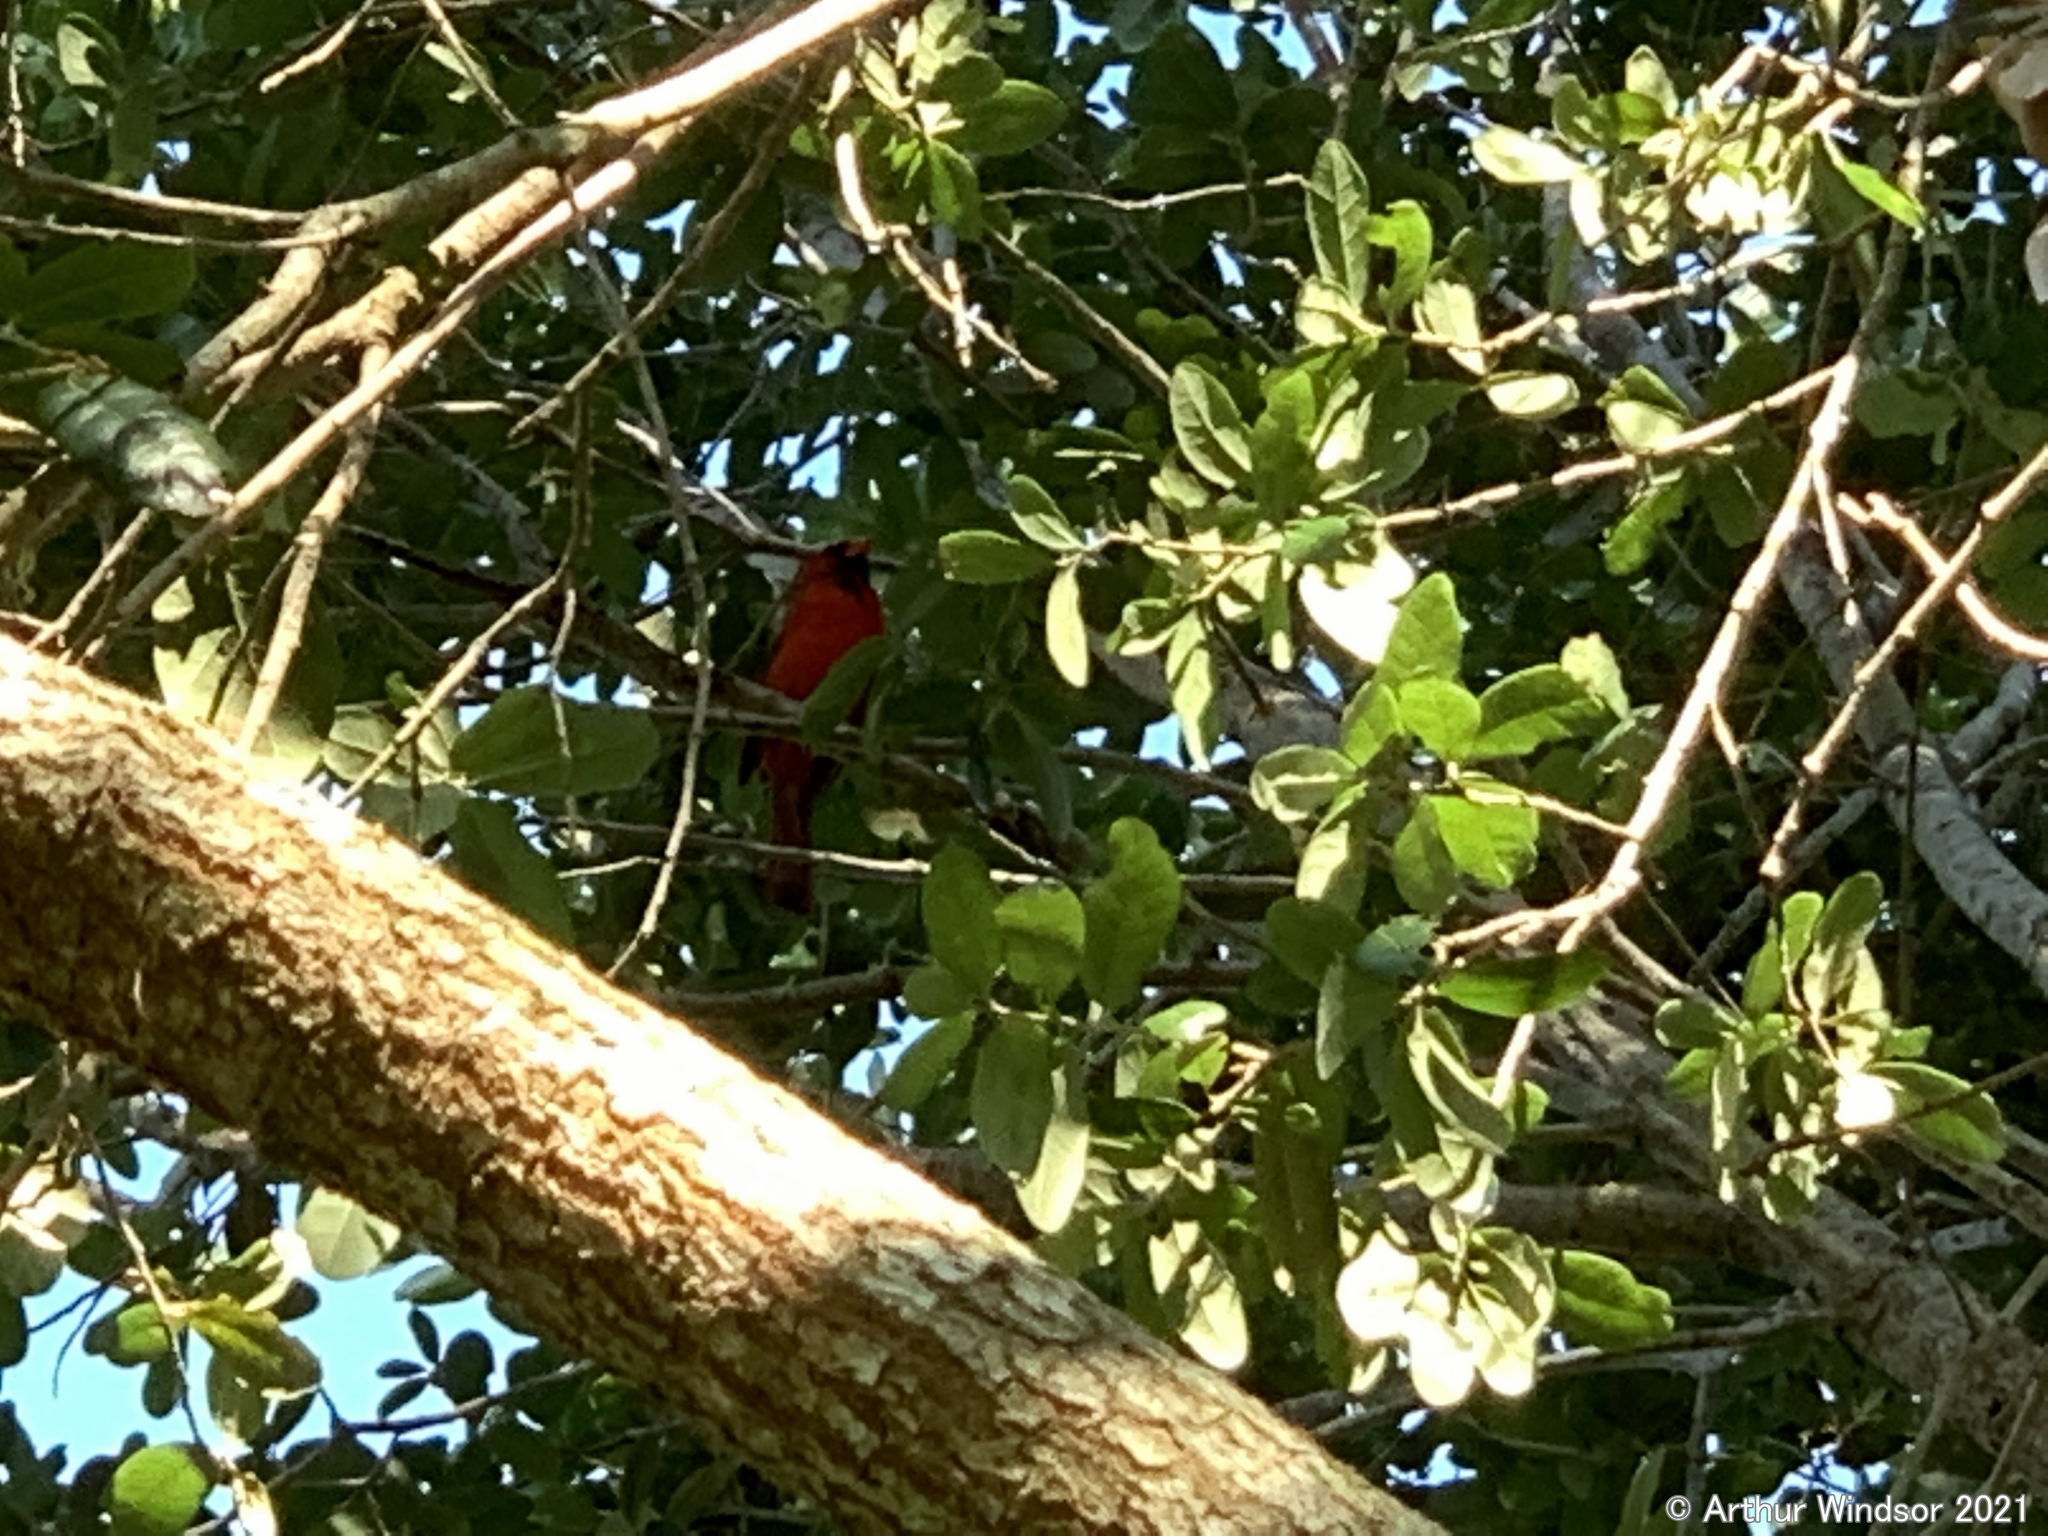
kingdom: Animalia
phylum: Chordata
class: Aves
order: Passeriformes
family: Cardinalidae
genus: Cardinalis
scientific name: Cardinalis cardinalis
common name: Northern cardinal
